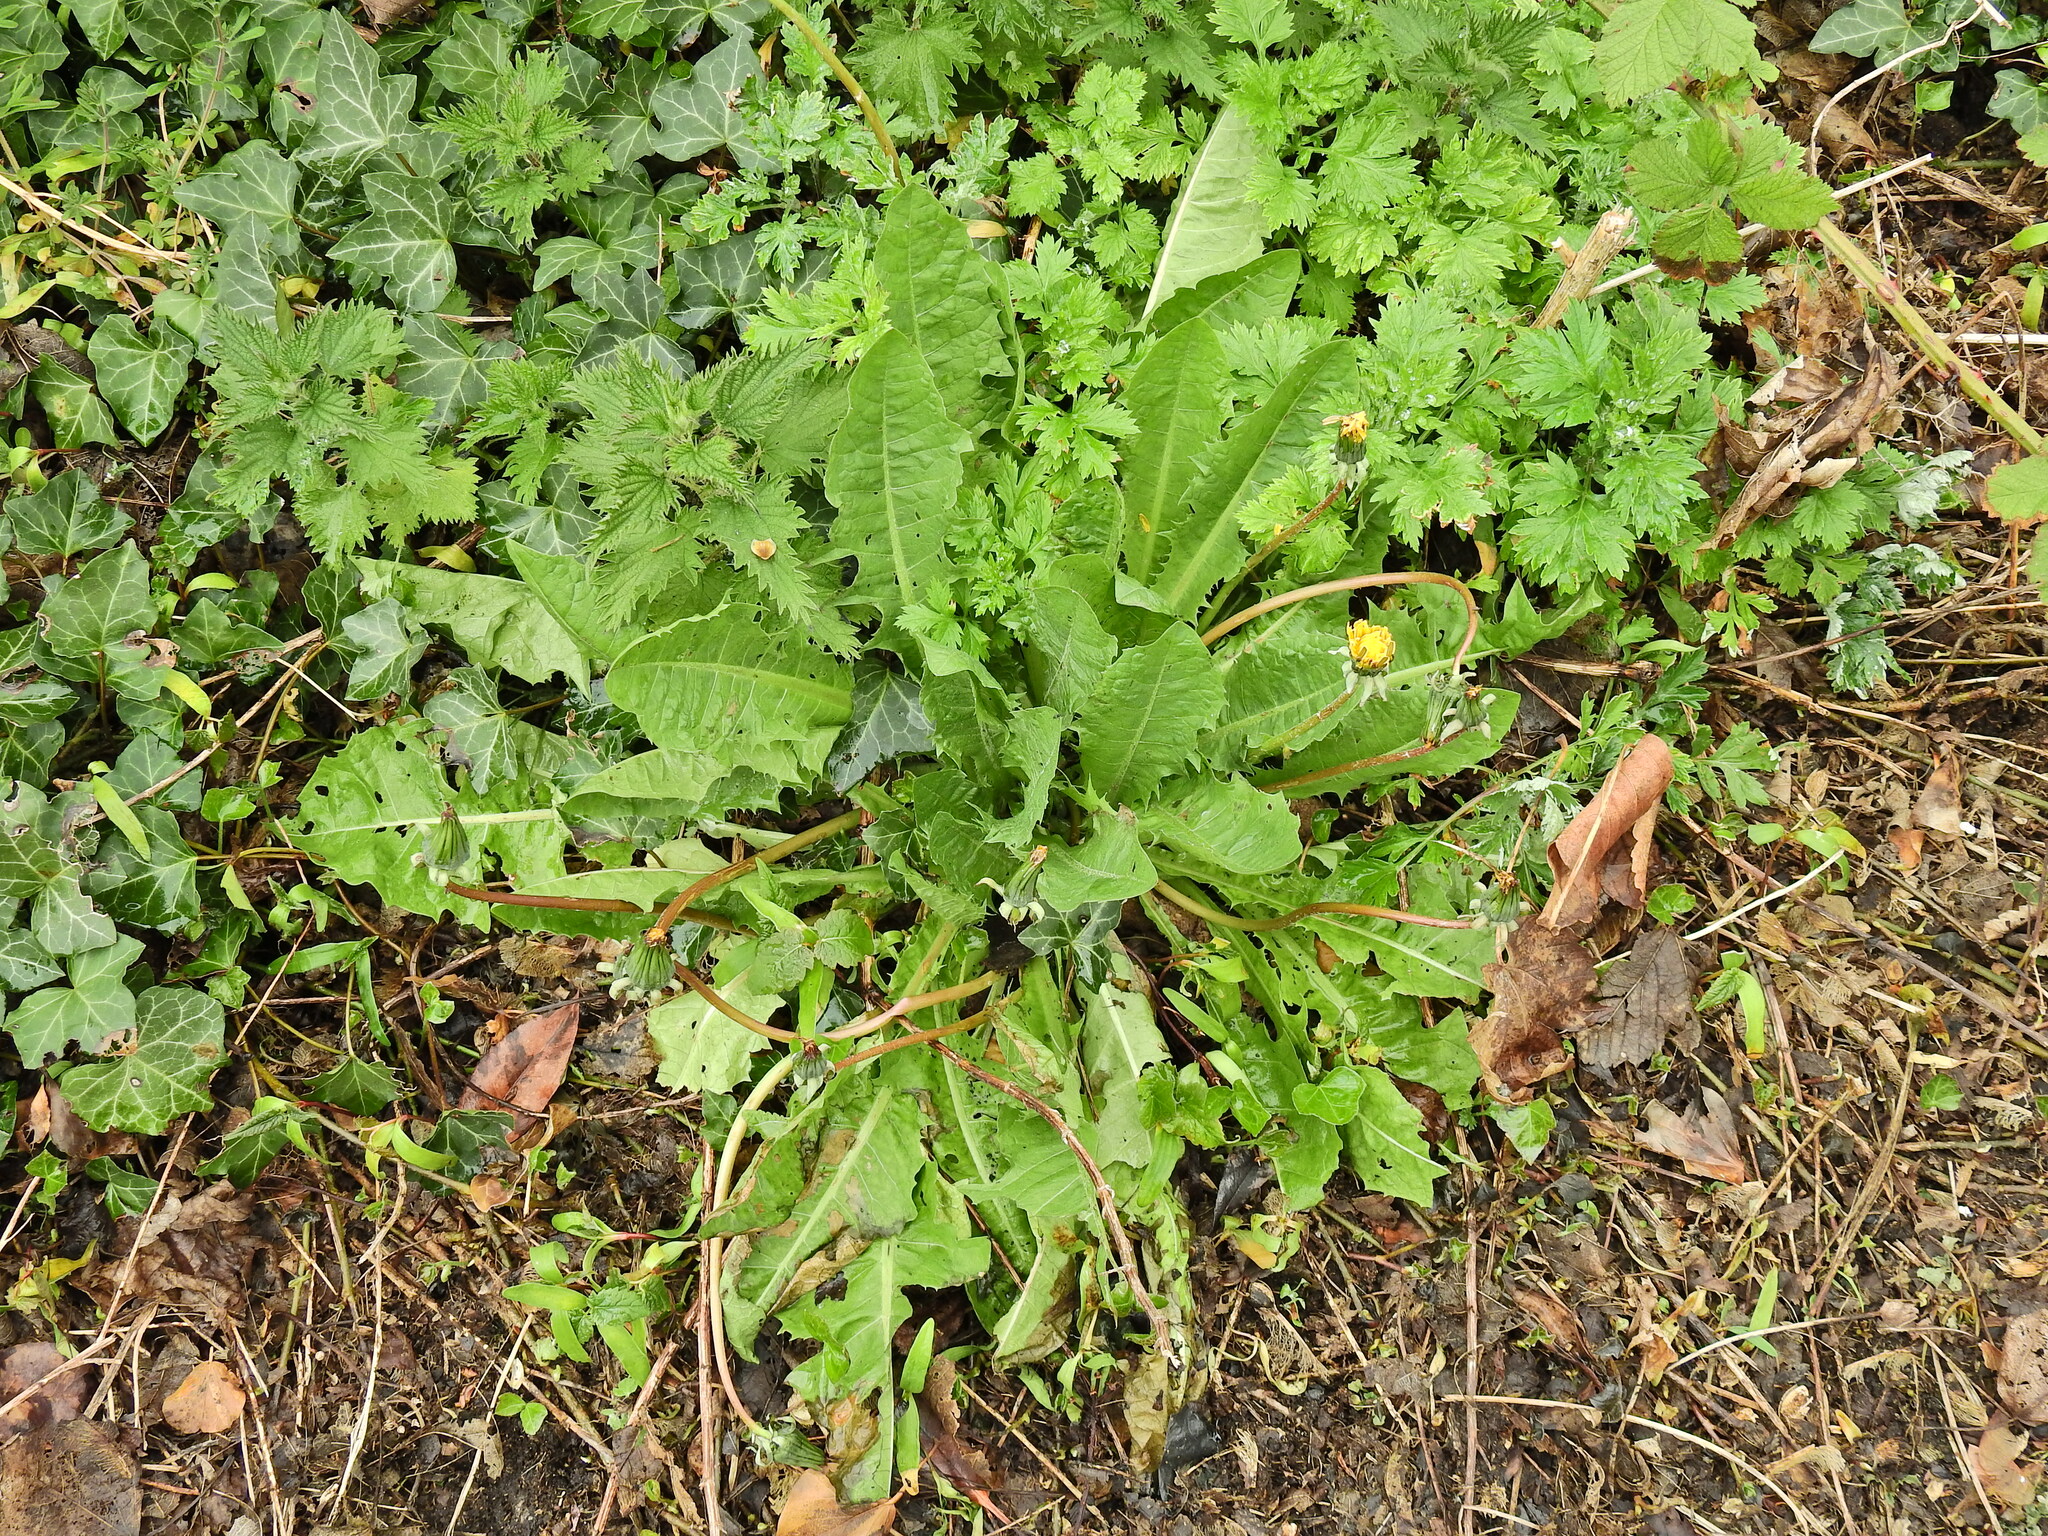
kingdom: Plantae
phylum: Tracheophyta
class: Magnoliopsida
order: Asterales
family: Asteraceae
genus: Taraxacum
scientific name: Taraxacum officinale
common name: Common dandelion
